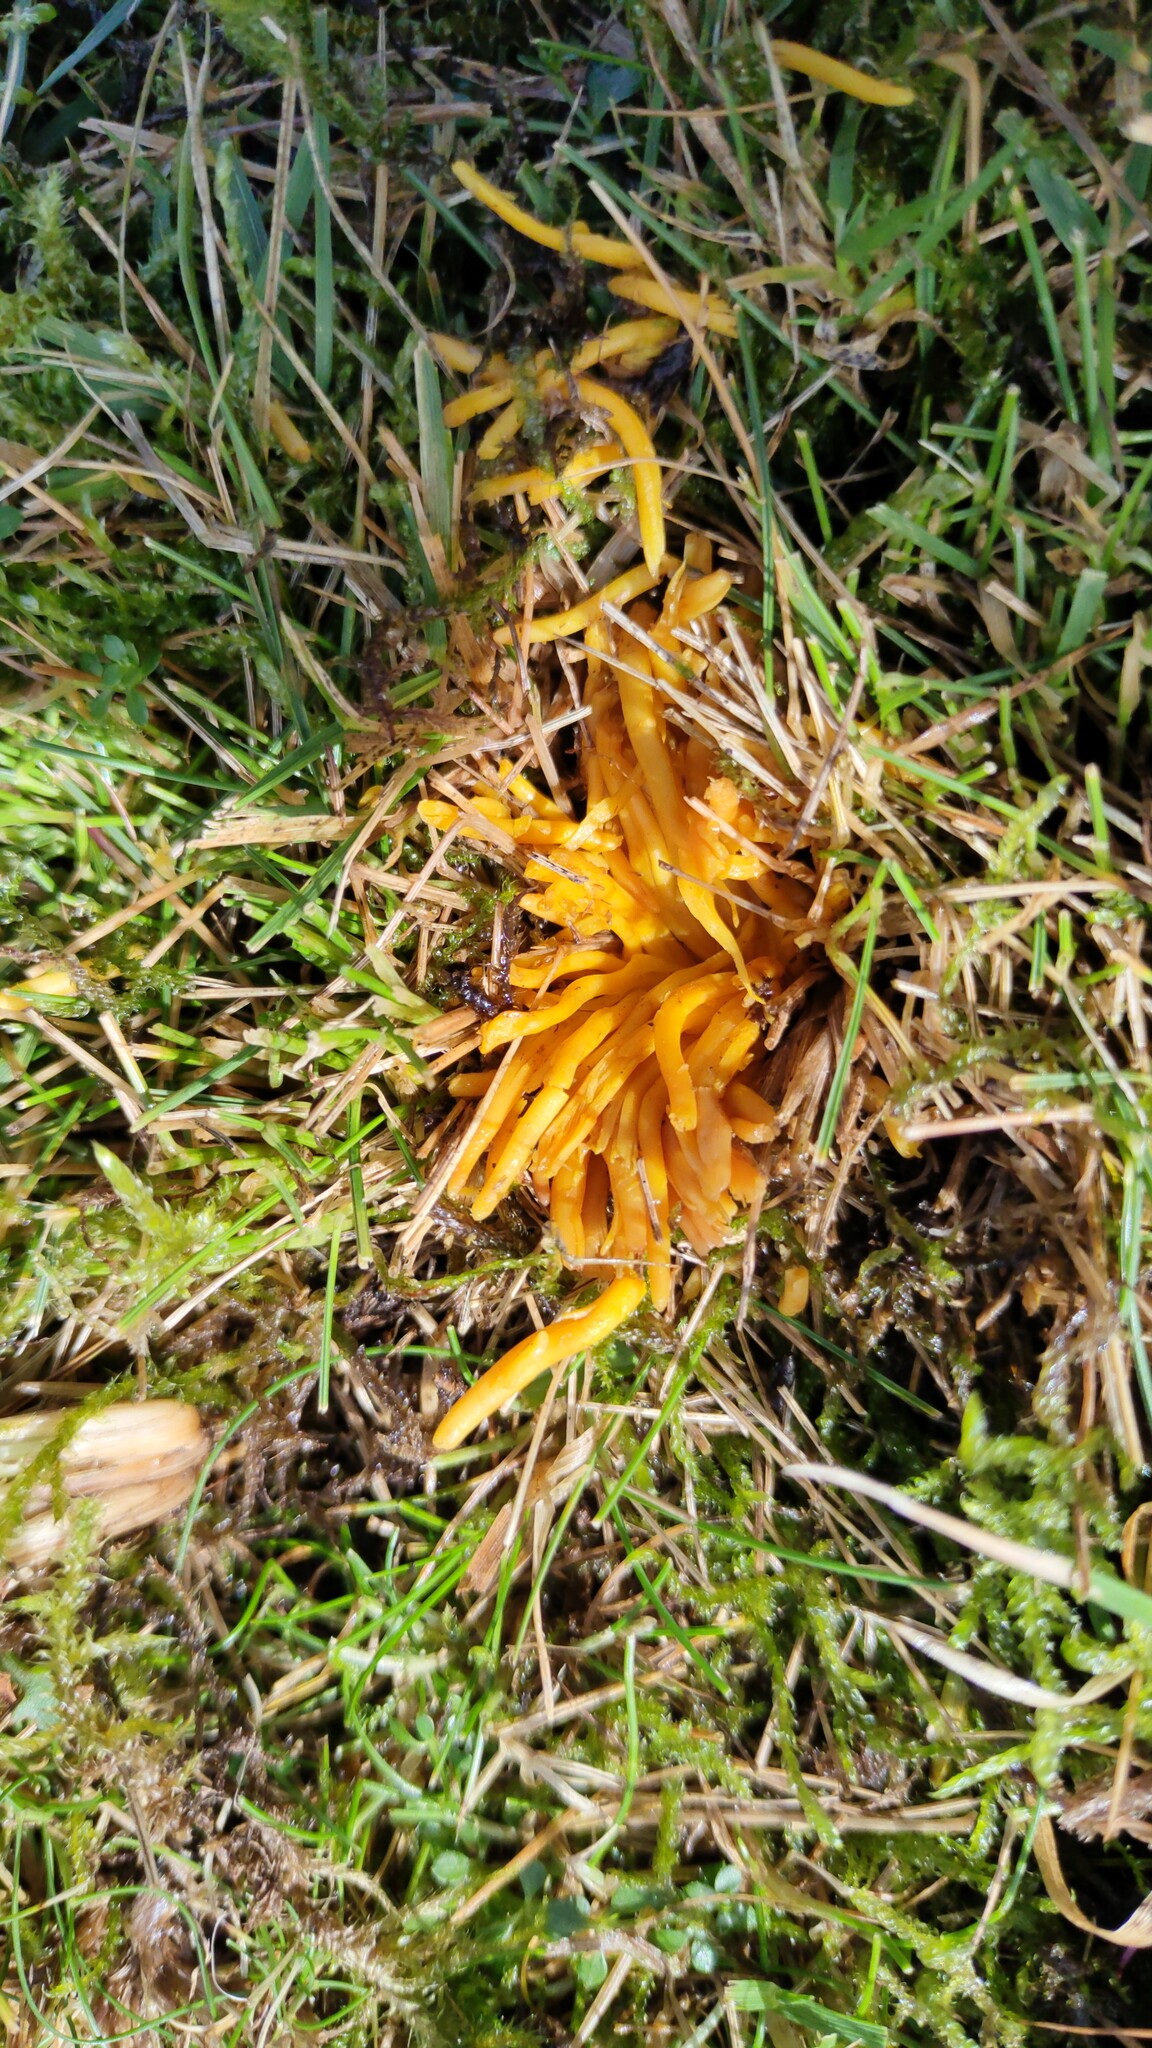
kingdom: Fungi
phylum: Basidiomycota
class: Agaricomycetes
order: Agaricales
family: Clavariaceae
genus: Clavulinopsis
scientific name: Clavulinopsis fusiformis
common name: Golden spindles
